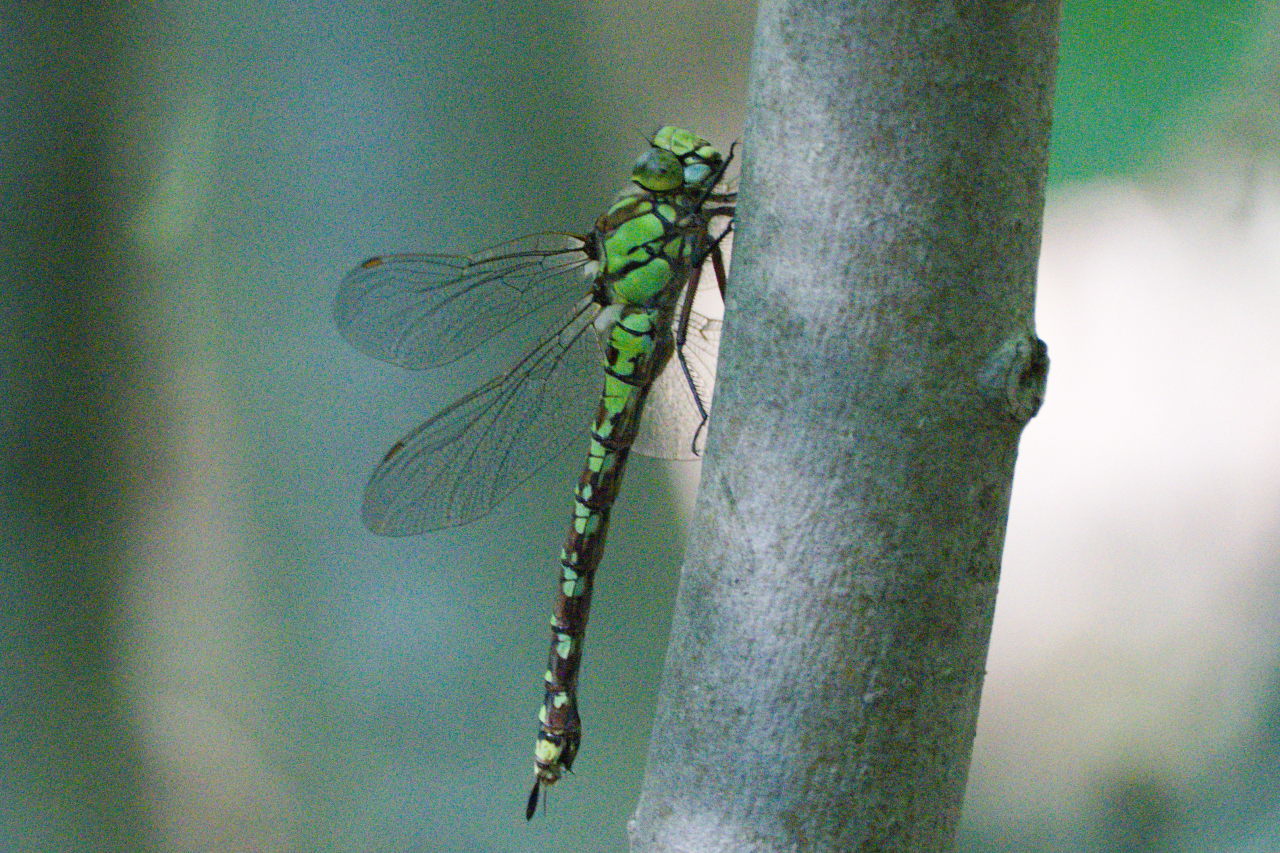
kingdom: Animalia
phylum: Arthropoda
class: Insecta
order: Odonata
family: Aeshnidae
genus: Aeshna
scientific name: Aeshna cyanea
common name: Southern hawker
